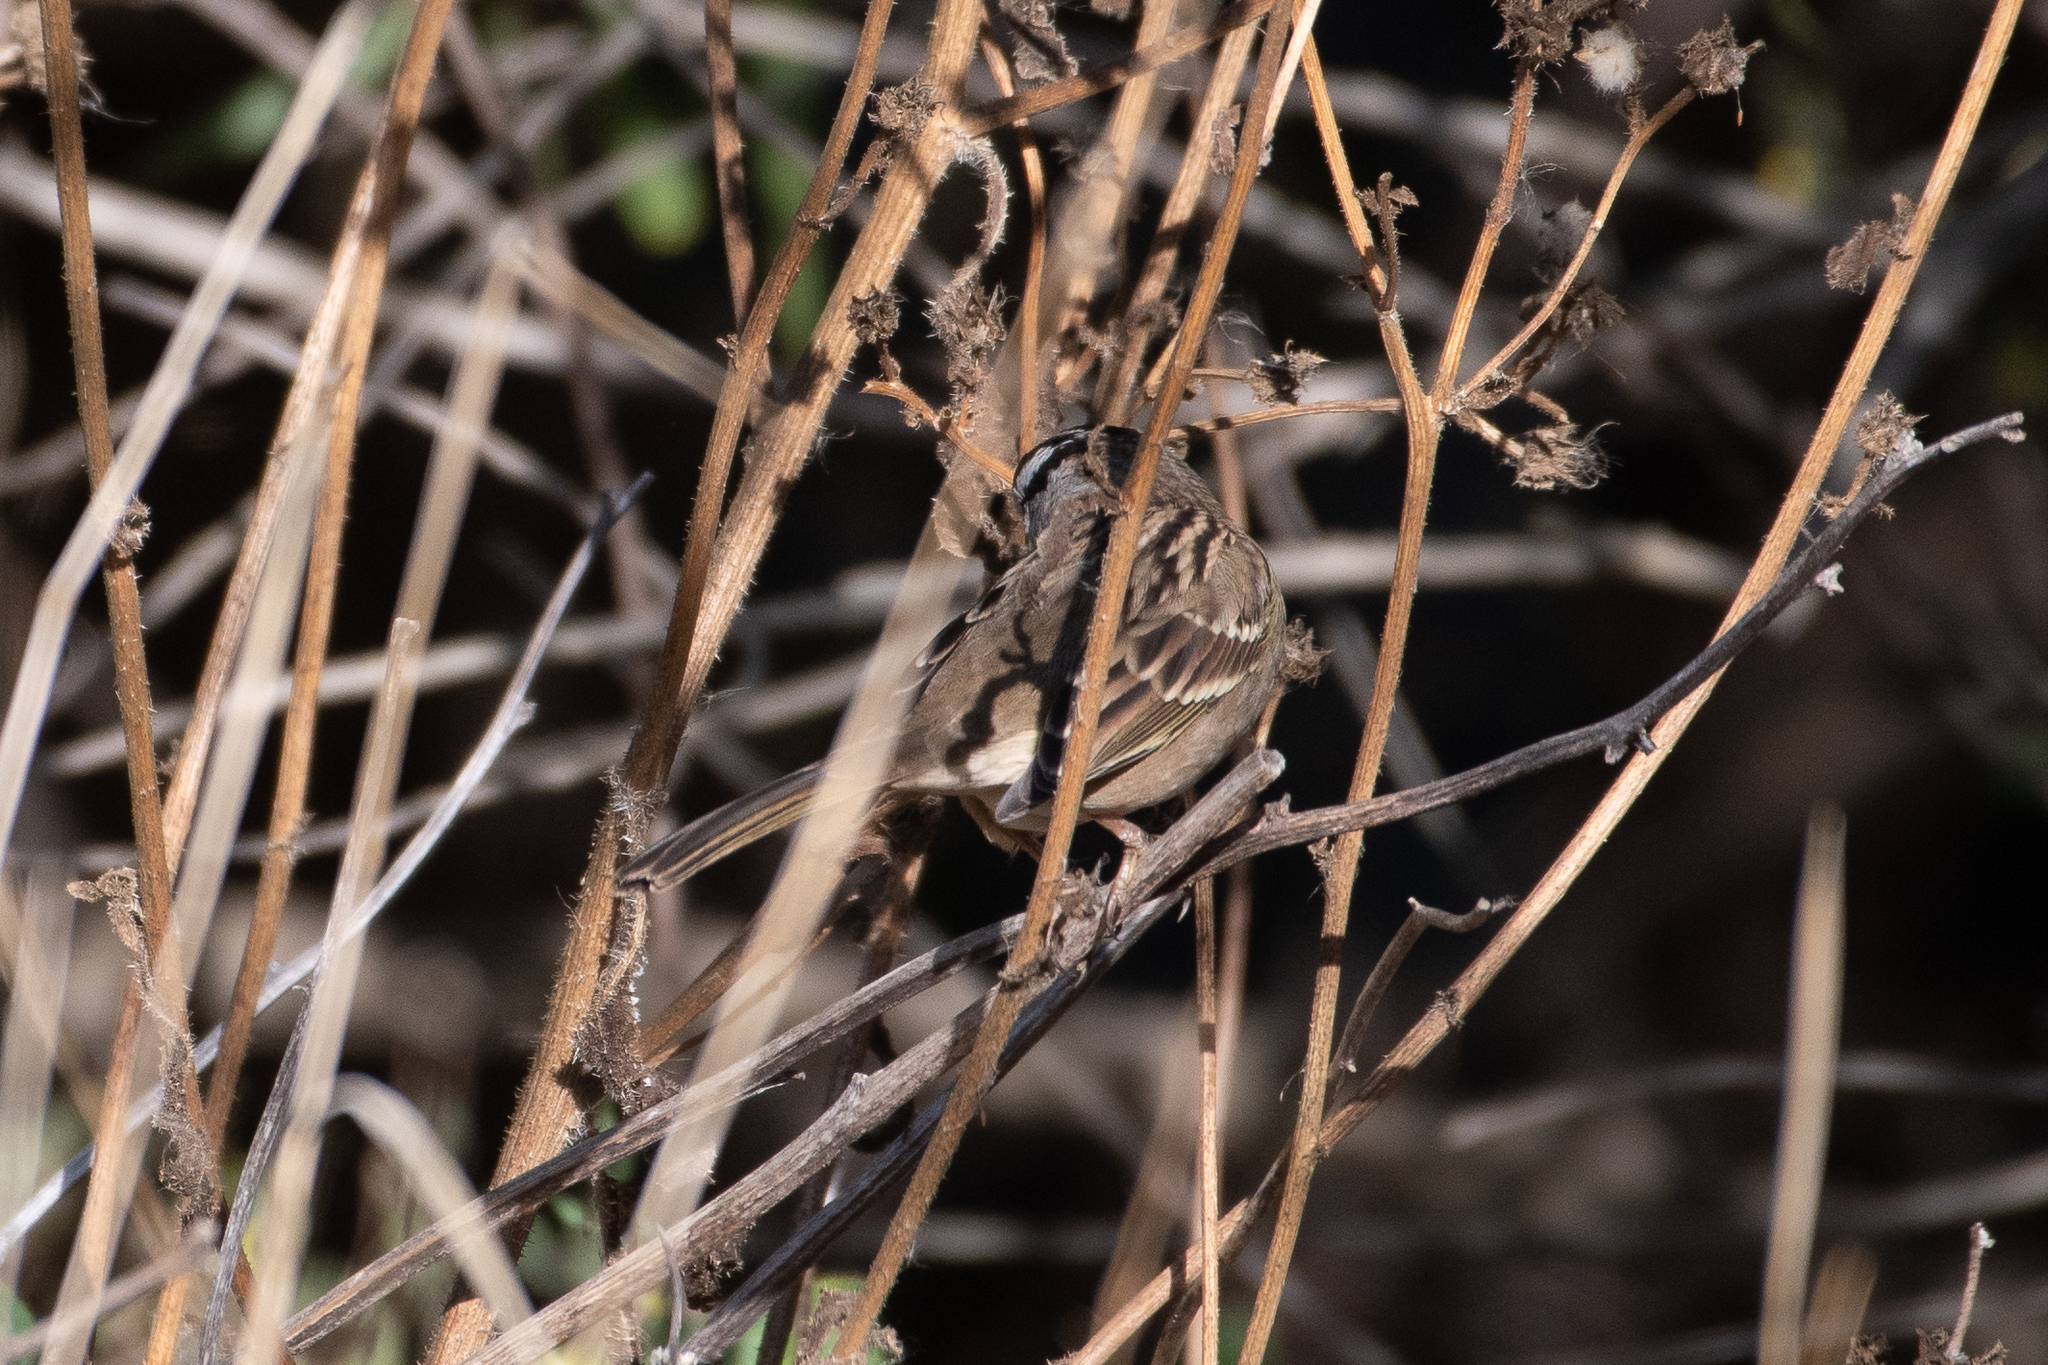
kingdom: Animalia
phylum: Chordata
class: Aves
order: Passeriformes
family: Passerellidae
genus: Zonotrichia
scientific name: Zonotrichia leucophrys
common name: White-crowned sparrow
